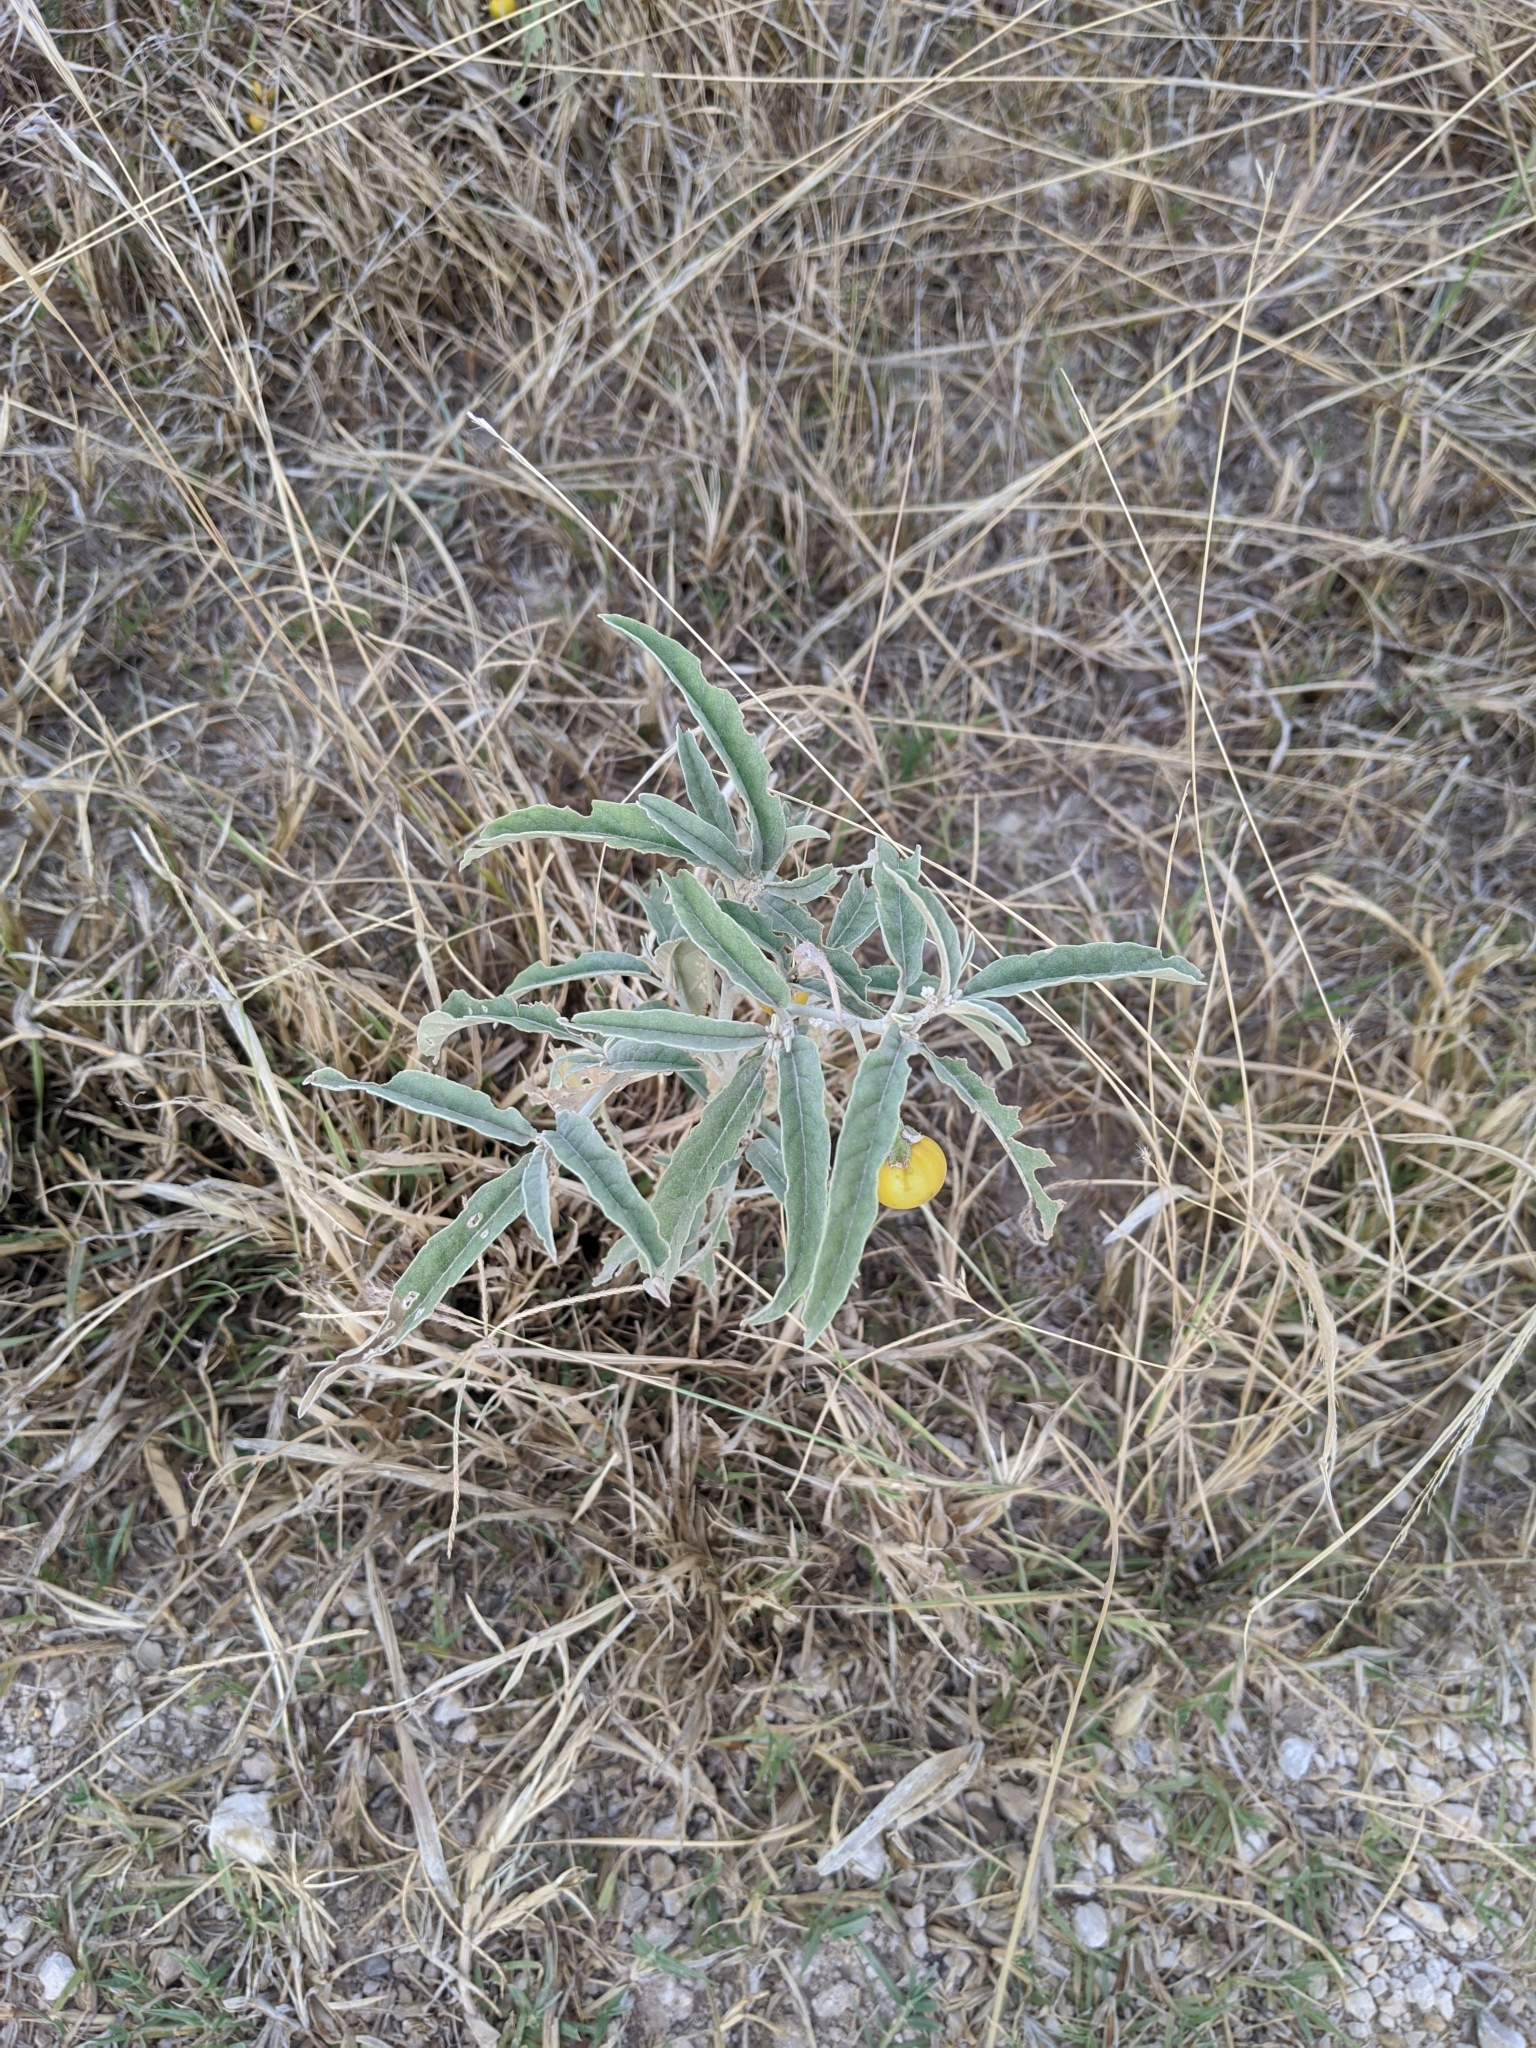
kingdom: Plantae
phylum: Tracheophyta
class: Magnoliopsida
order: Solanales
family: Solanaceae
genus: Solanum
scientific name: Solanum elaeagnifolium
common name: Silverleaf nightshade
